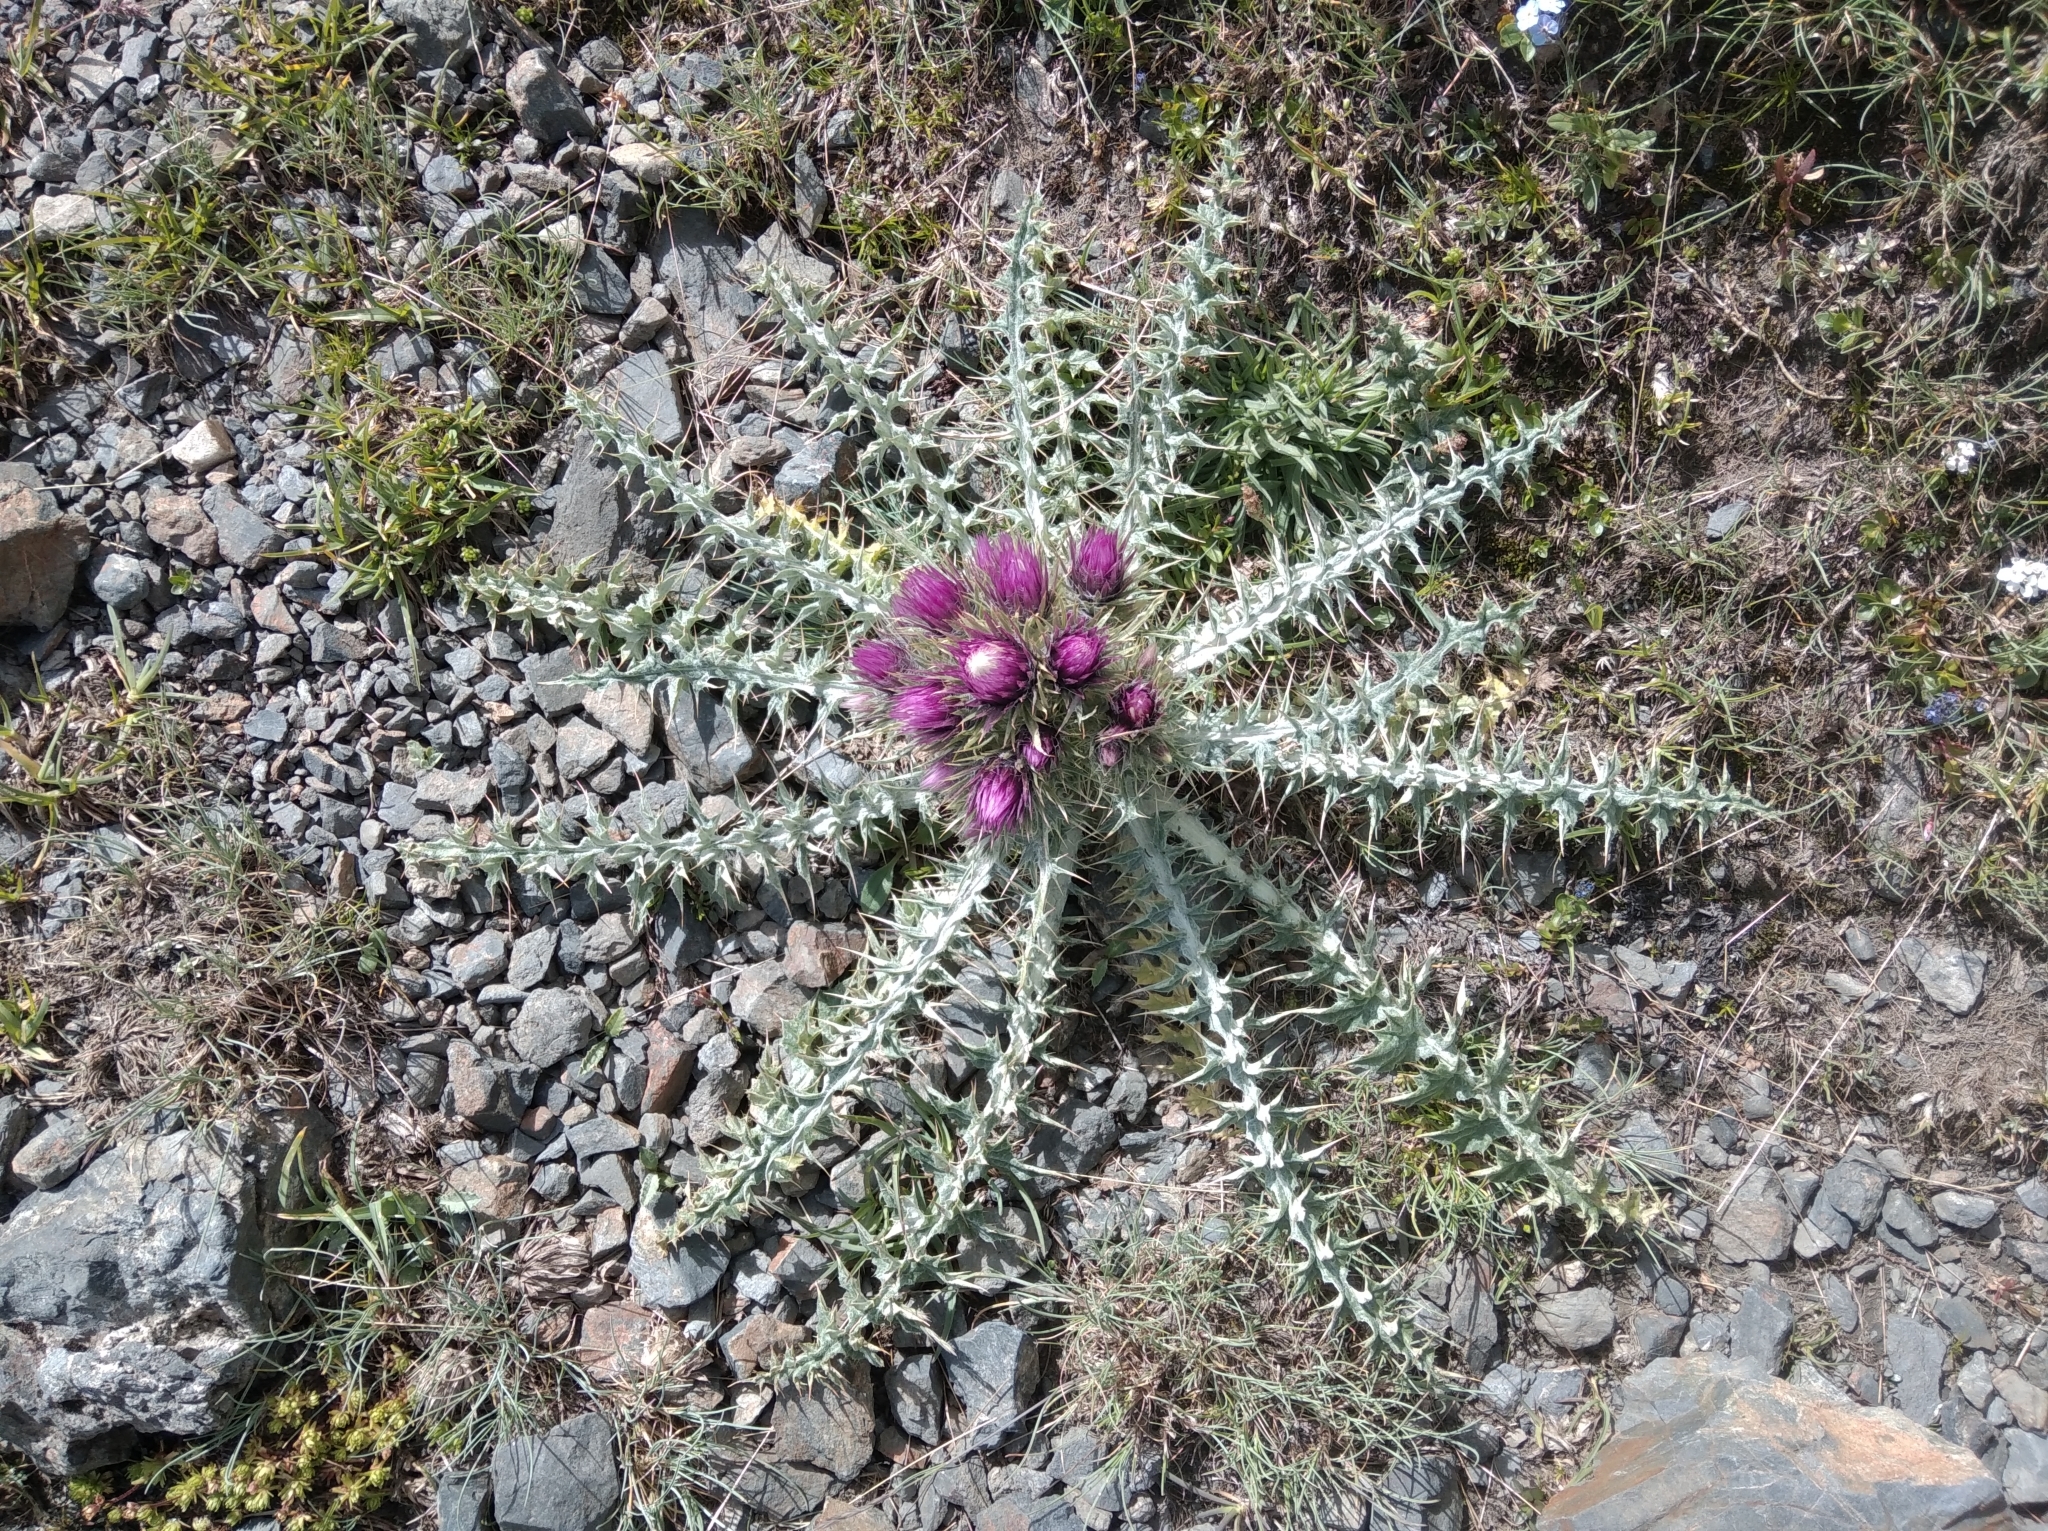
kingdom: Plantae
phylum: Tracheophyta
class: Magnoliopsida
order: Asterales
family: Asteraceae
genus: Carduus
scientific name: Carduus carlinoides
